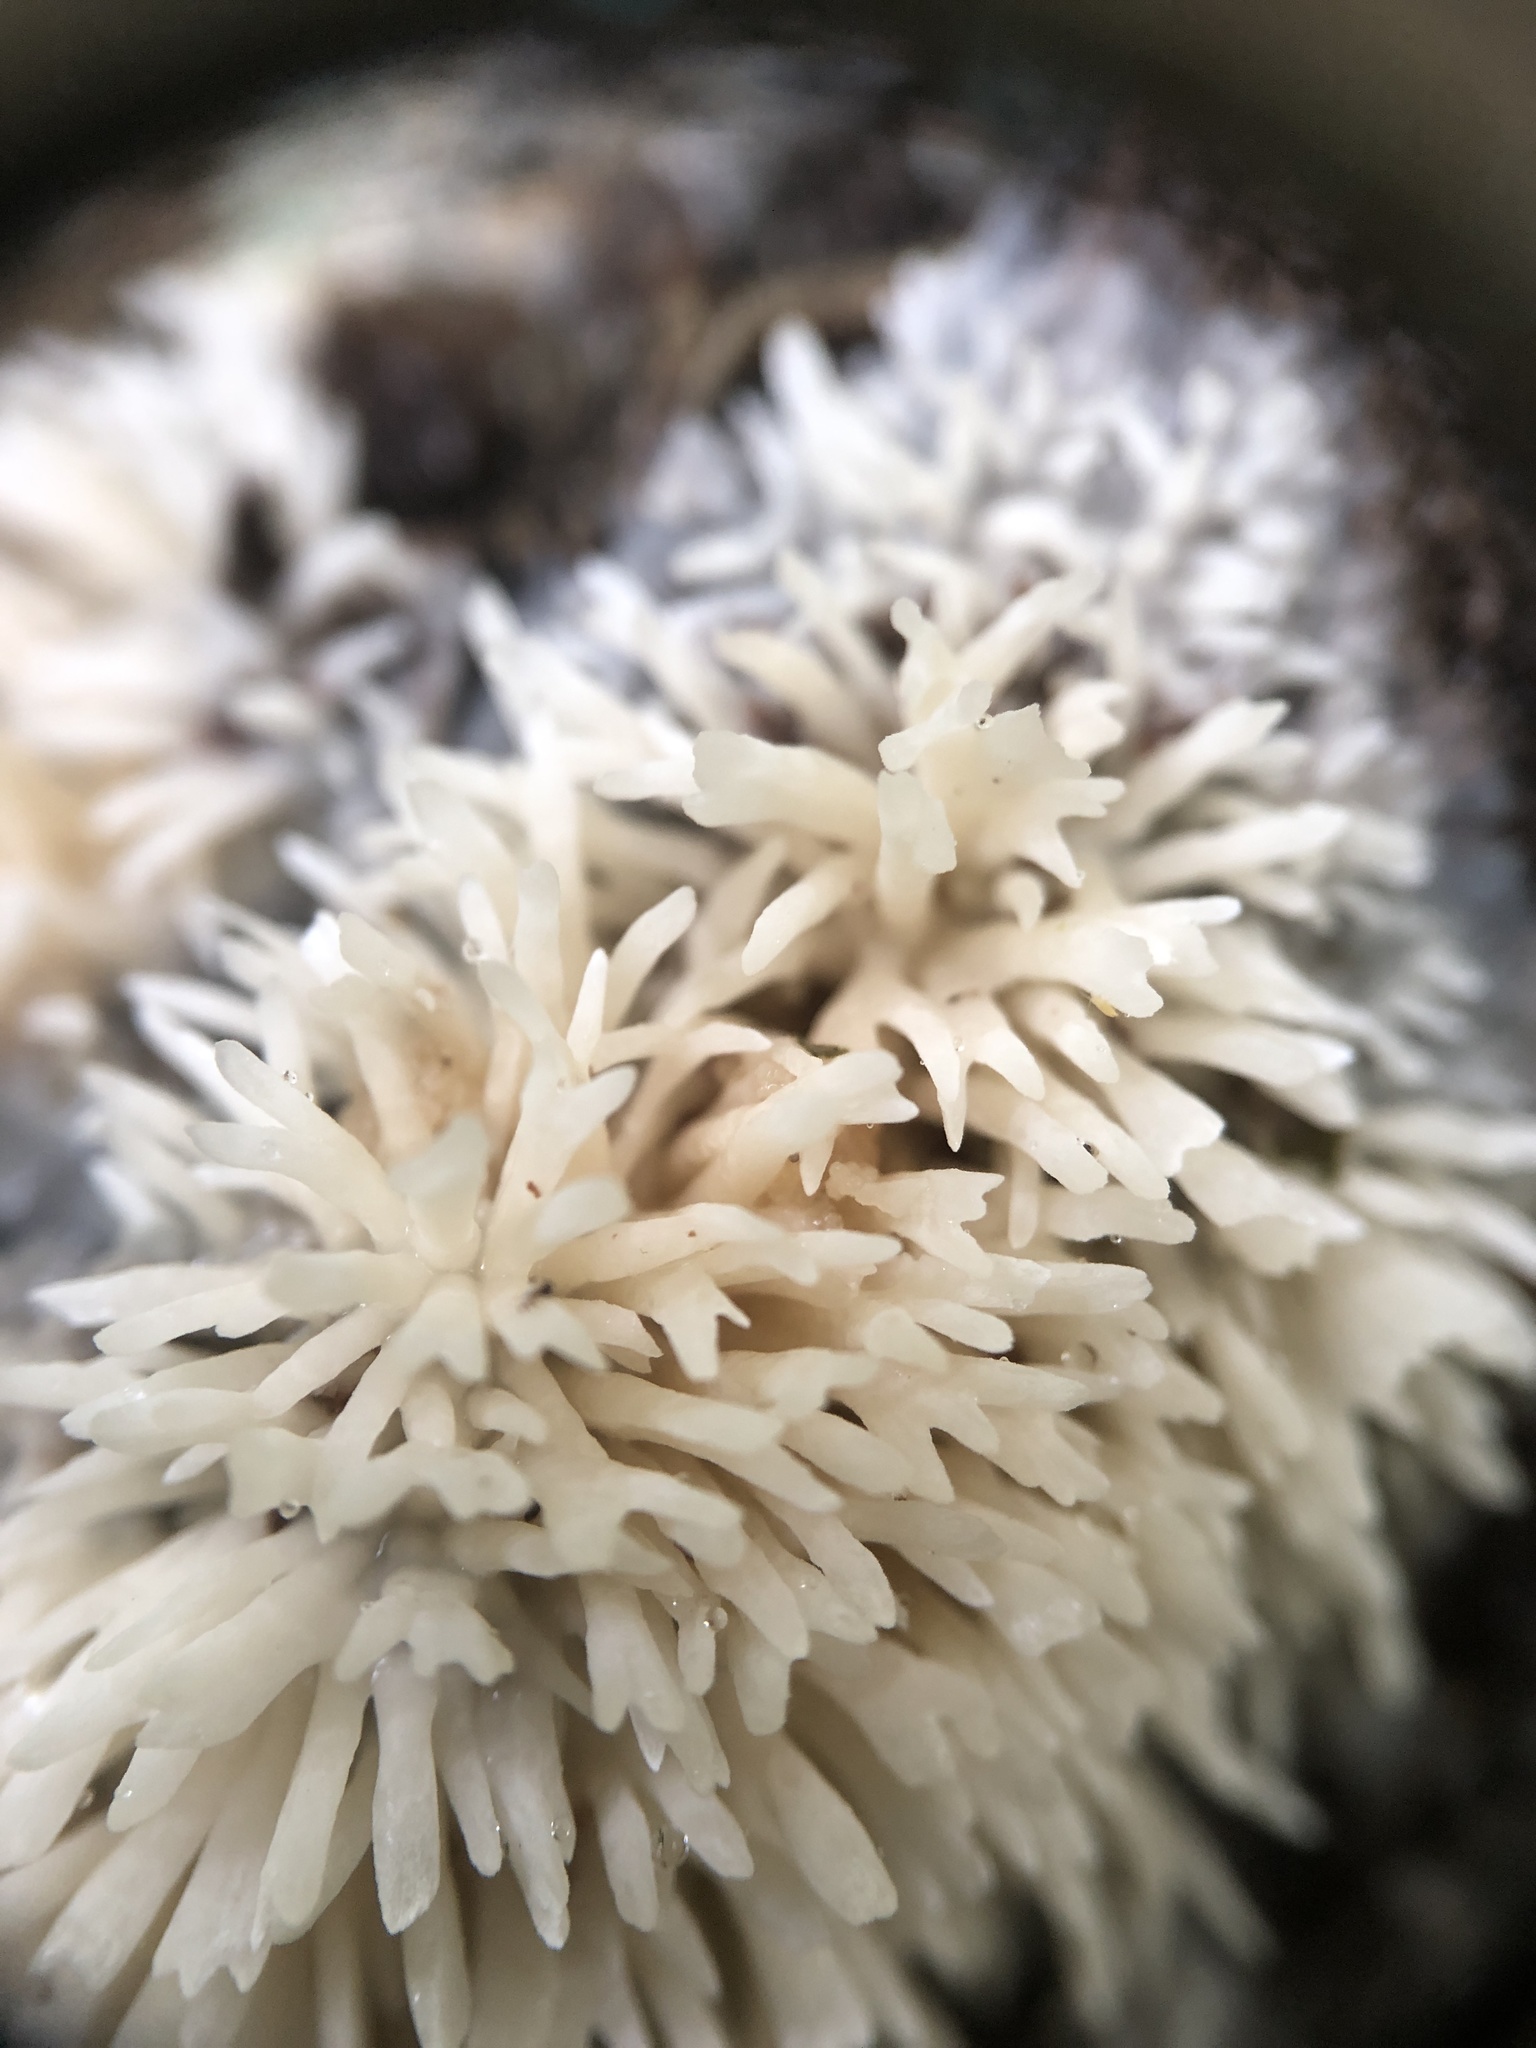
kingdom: Fungi
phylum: Basidiomycota
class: Agaricomycetes
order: Agaricales
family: Radulomycetaceae
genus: Radulomyces
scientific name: Radulomyces copelandii
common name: Asian beauty
